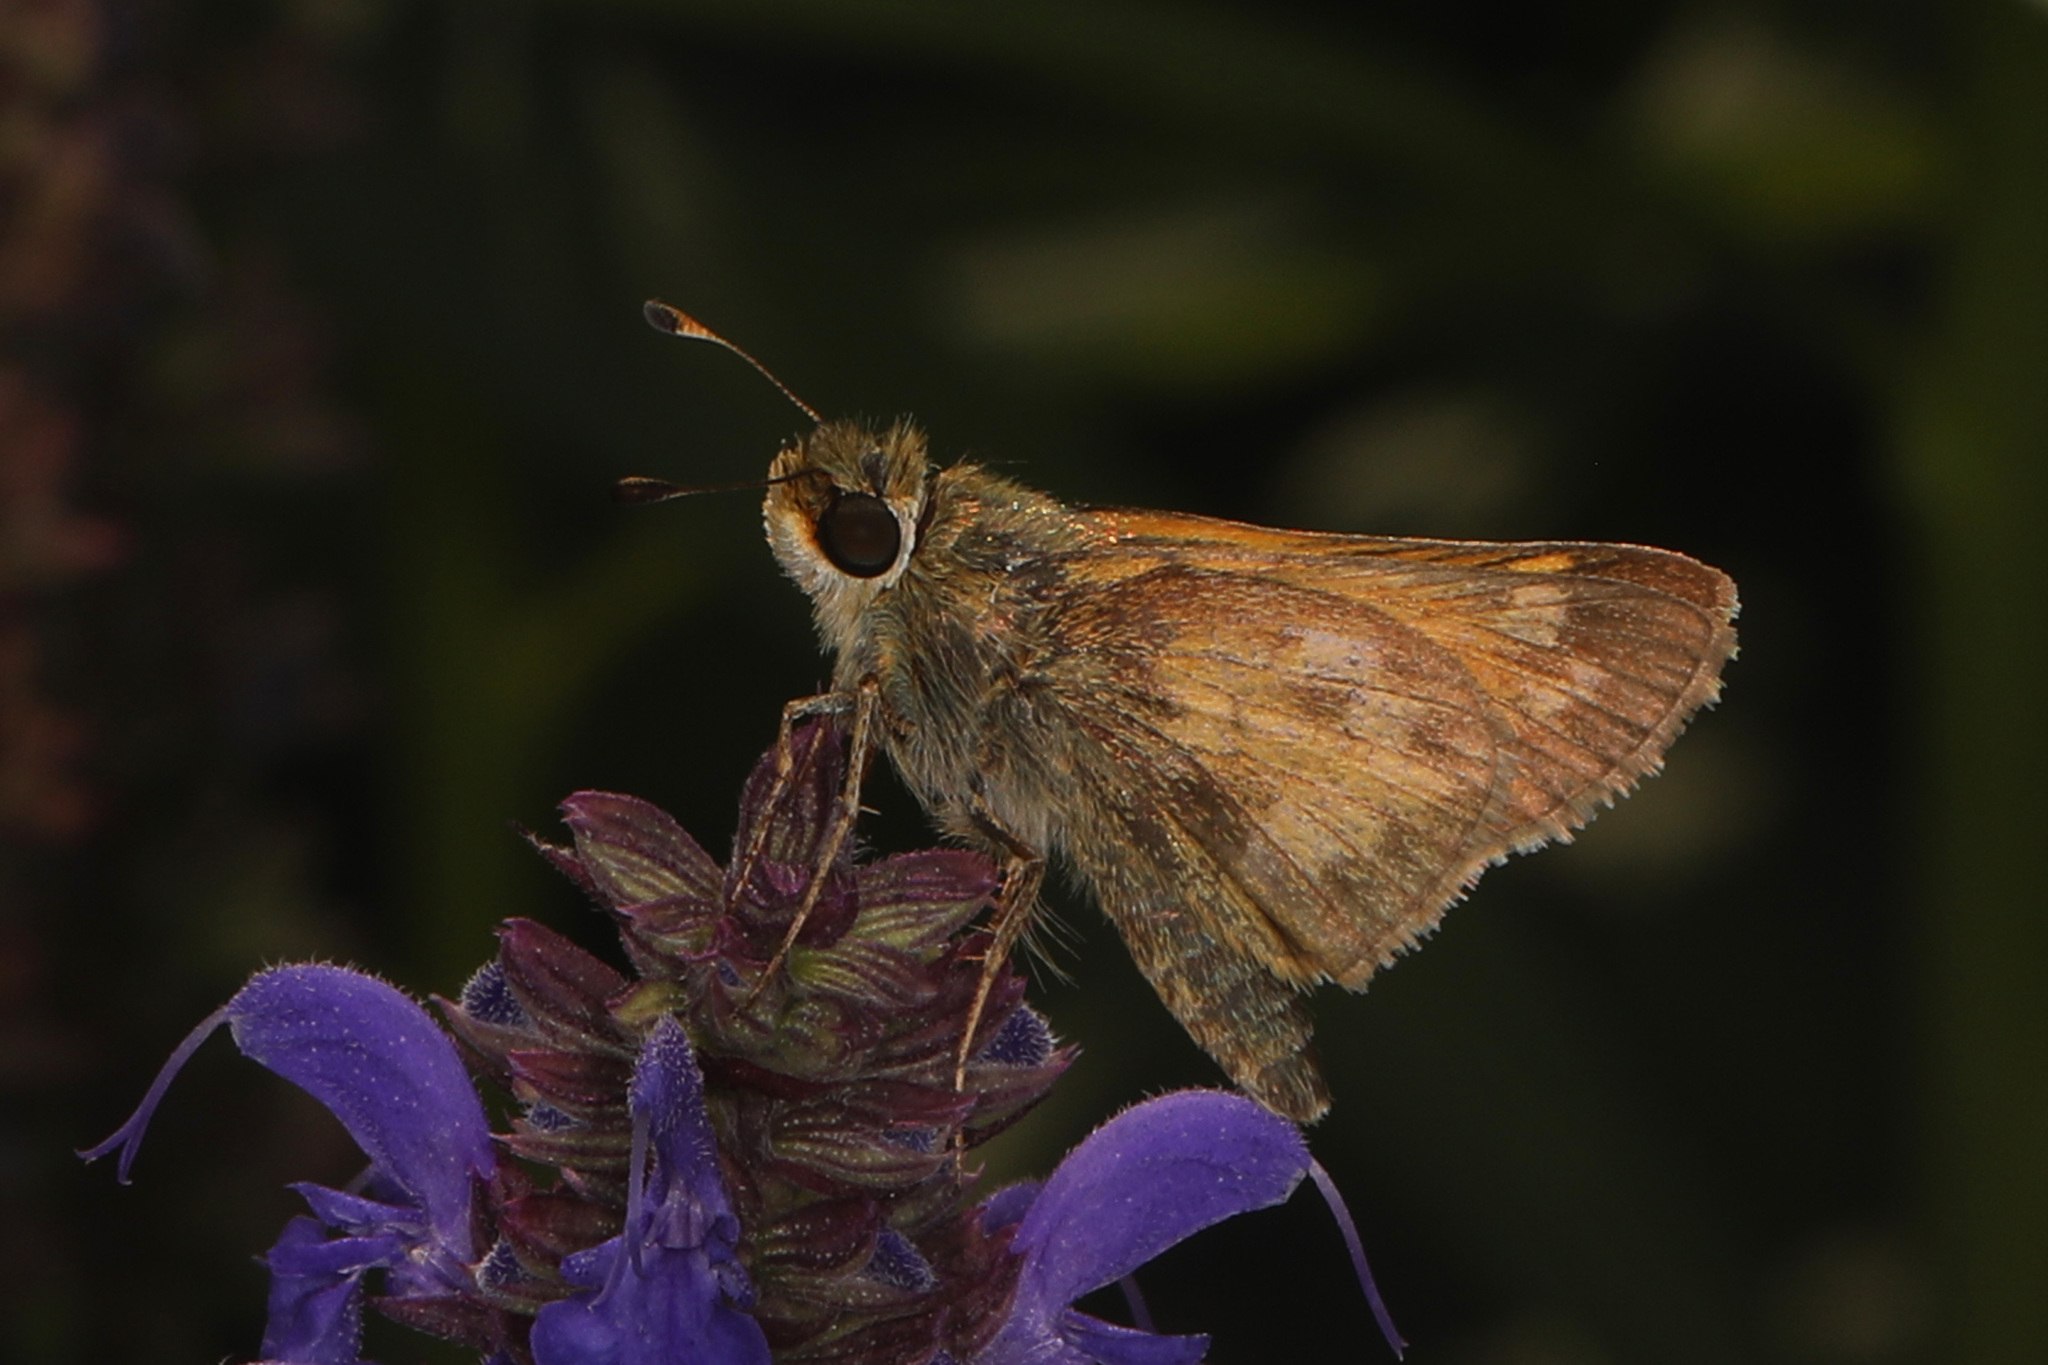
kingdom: Animalia
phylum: Arthropoda
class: Insecta
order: Lepidoptera
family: Hesperiidae
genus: Atalopedes
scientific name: Atalopedes
